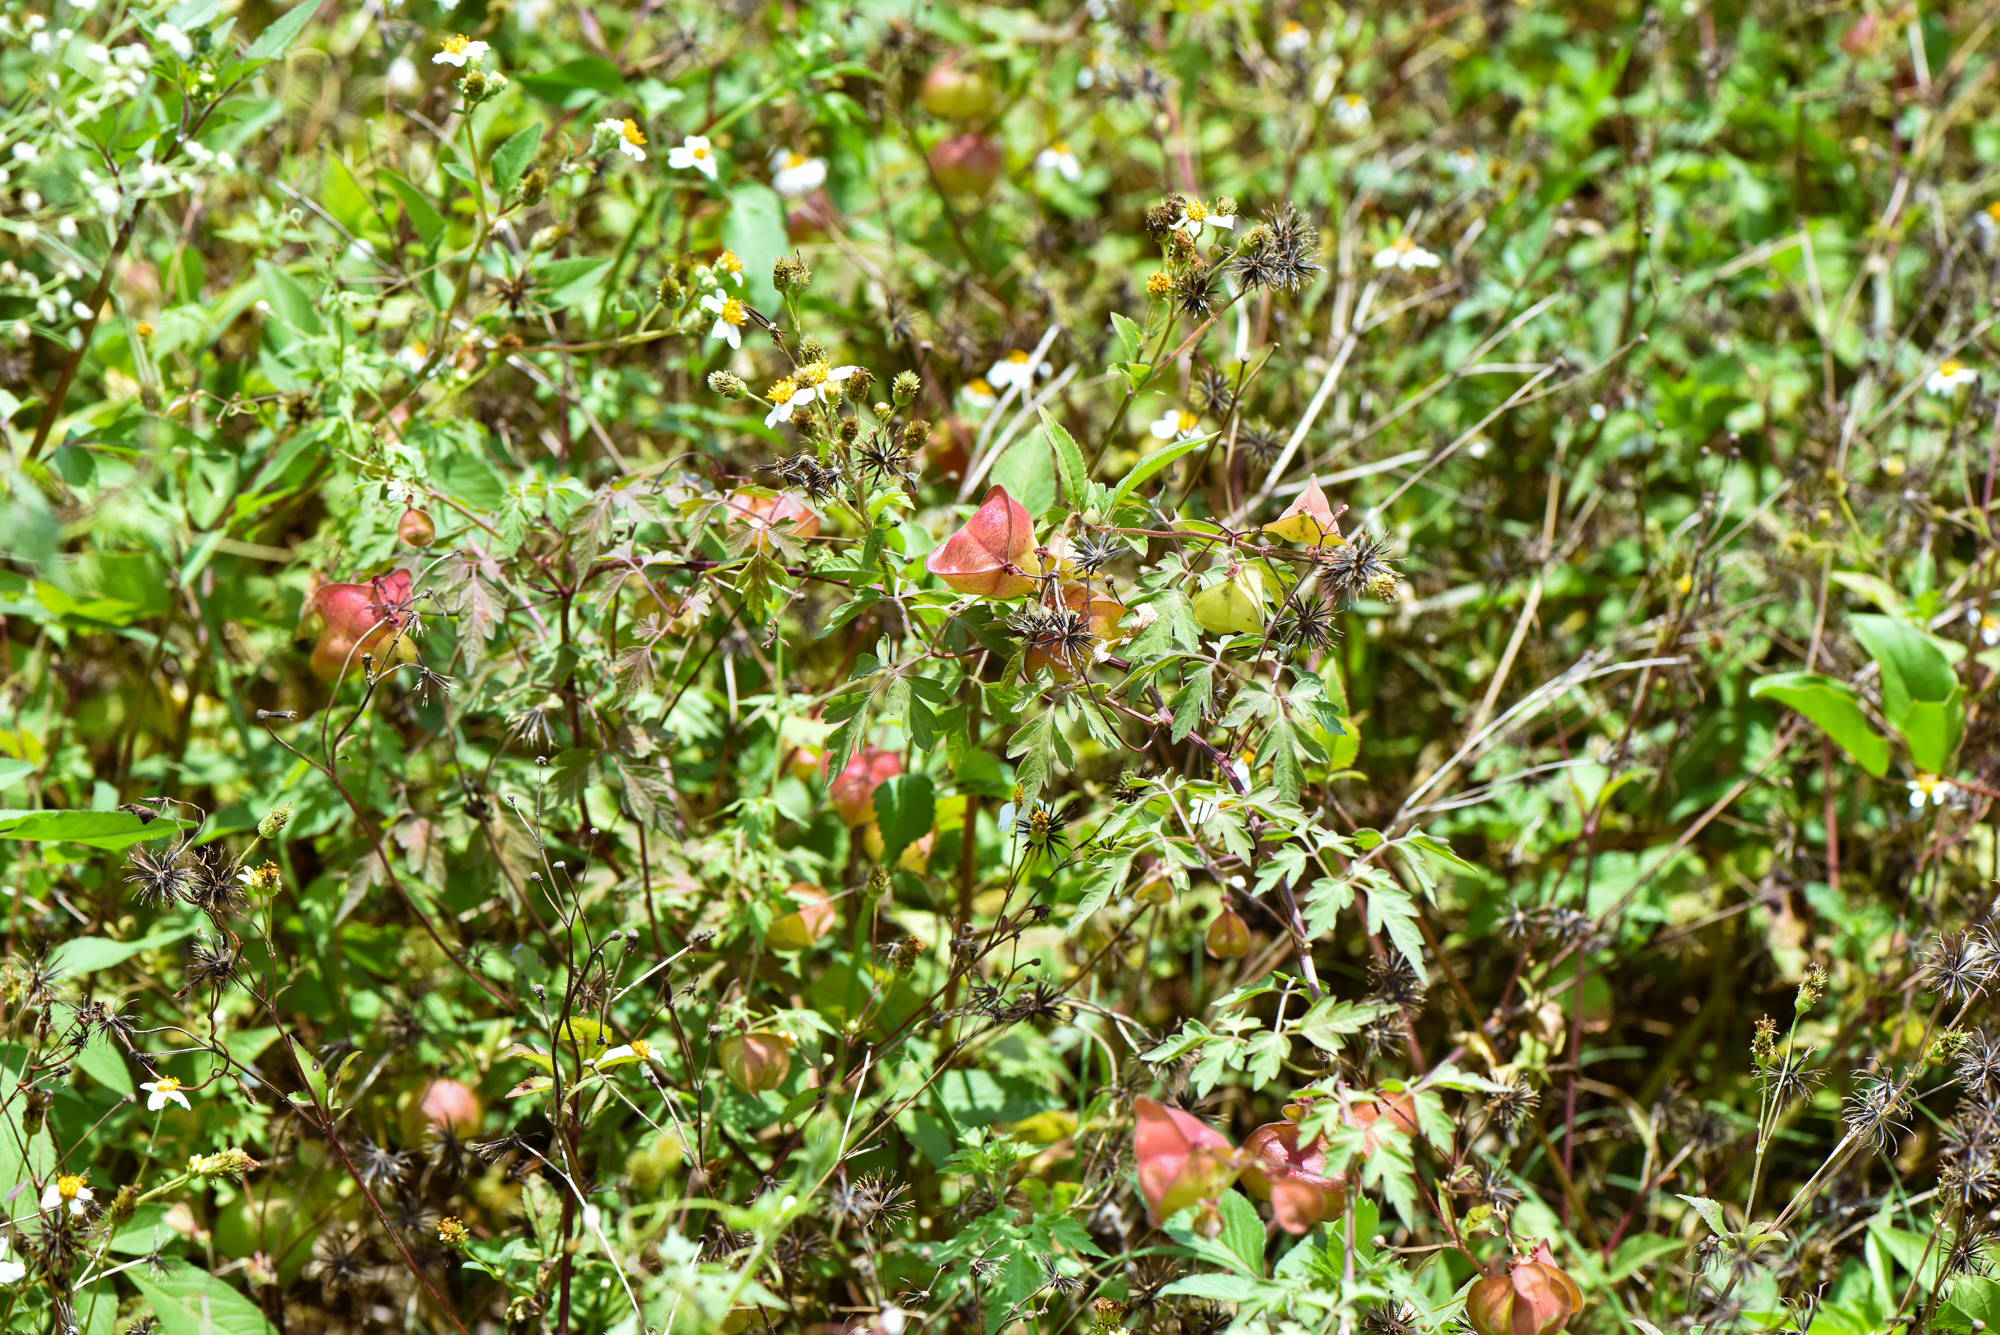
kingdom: Plantae
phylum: Tracheophyta
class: Magnoliopsida
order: Sapindales
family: Sapindaceae
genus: Cardiospermum
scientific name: Cardiospermum halicacabum
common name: Balloon vine
